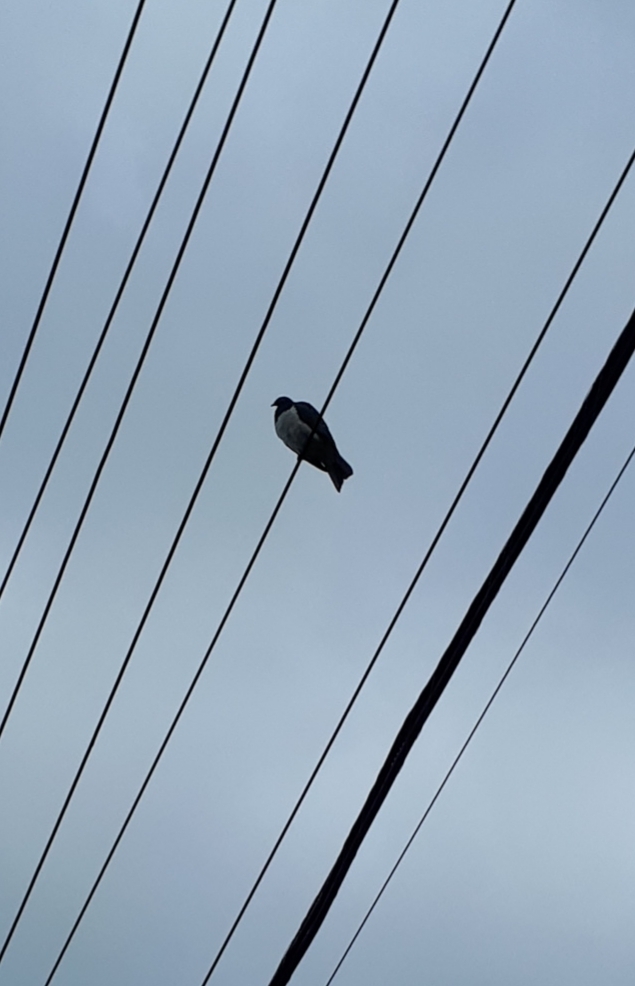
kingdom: Animalia
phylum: Chordata
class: Aves
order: Columbiformes
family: Columbidae
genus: Hemiphaga
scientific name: Hemiphaga novaeseelandiae
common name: New zealand pigeon
